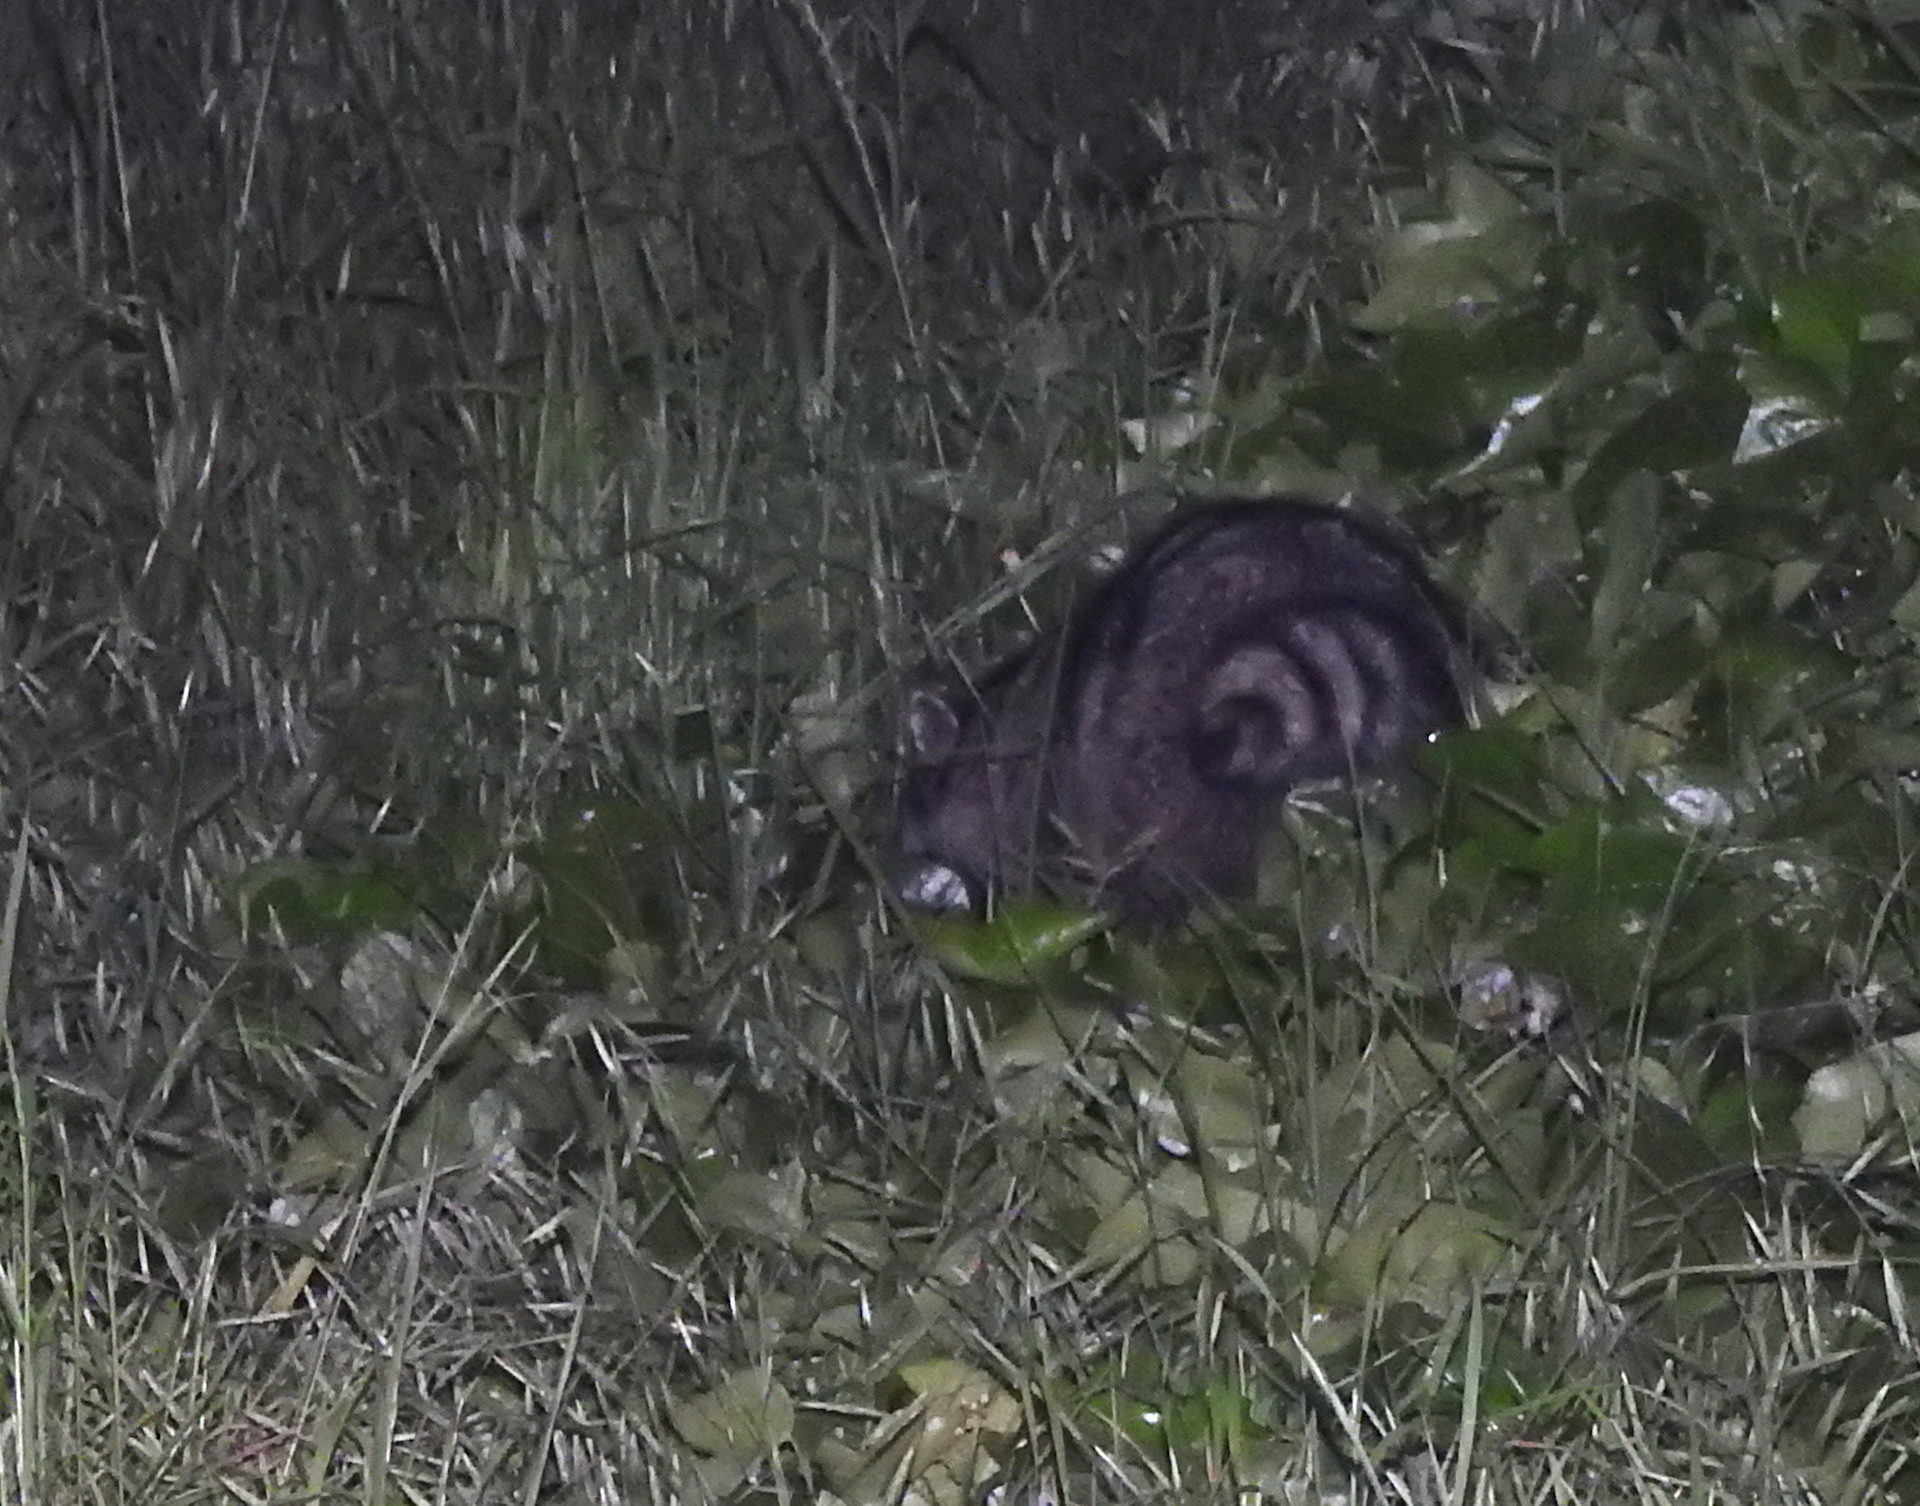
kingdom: Animalia
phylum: Chordata
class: Mammalia
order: Carnivora
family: Procyonidae
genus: Procyon
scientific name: Procyon lotor
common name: Raccoon
